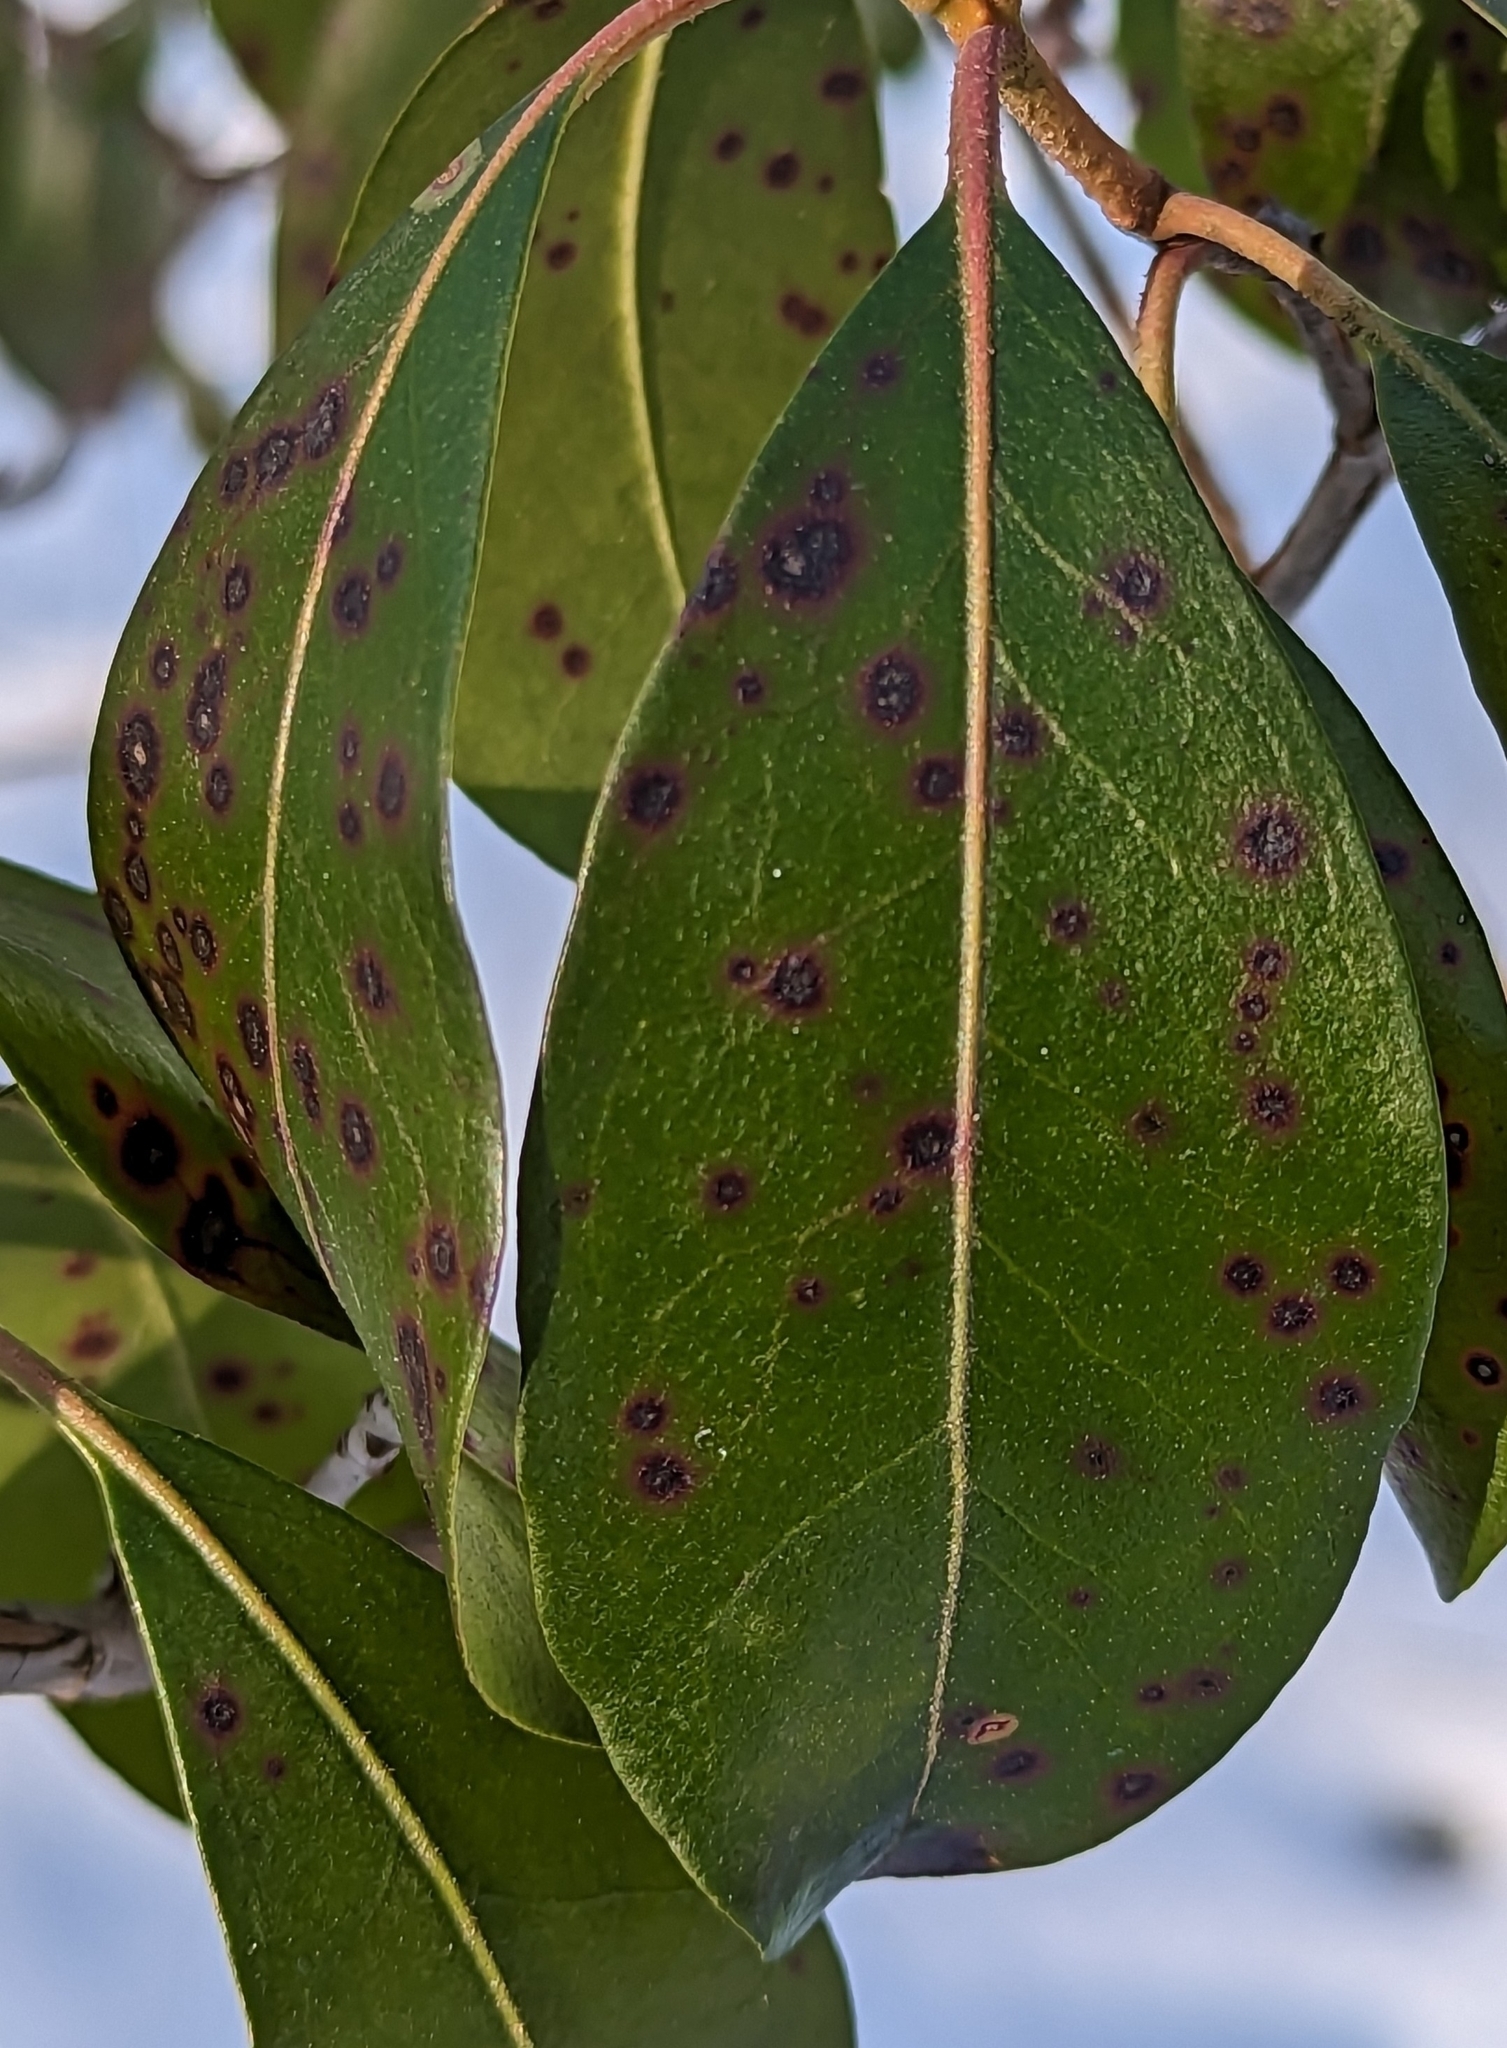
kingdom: Fungi
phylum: Ascomycota
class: Dothideomycetes
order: Mycosphaerellales
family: Mycosphaerellaceae
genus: Mycosphaerella
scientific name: Mycosphaerella colorata
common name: Mountain laurel leaf spot
